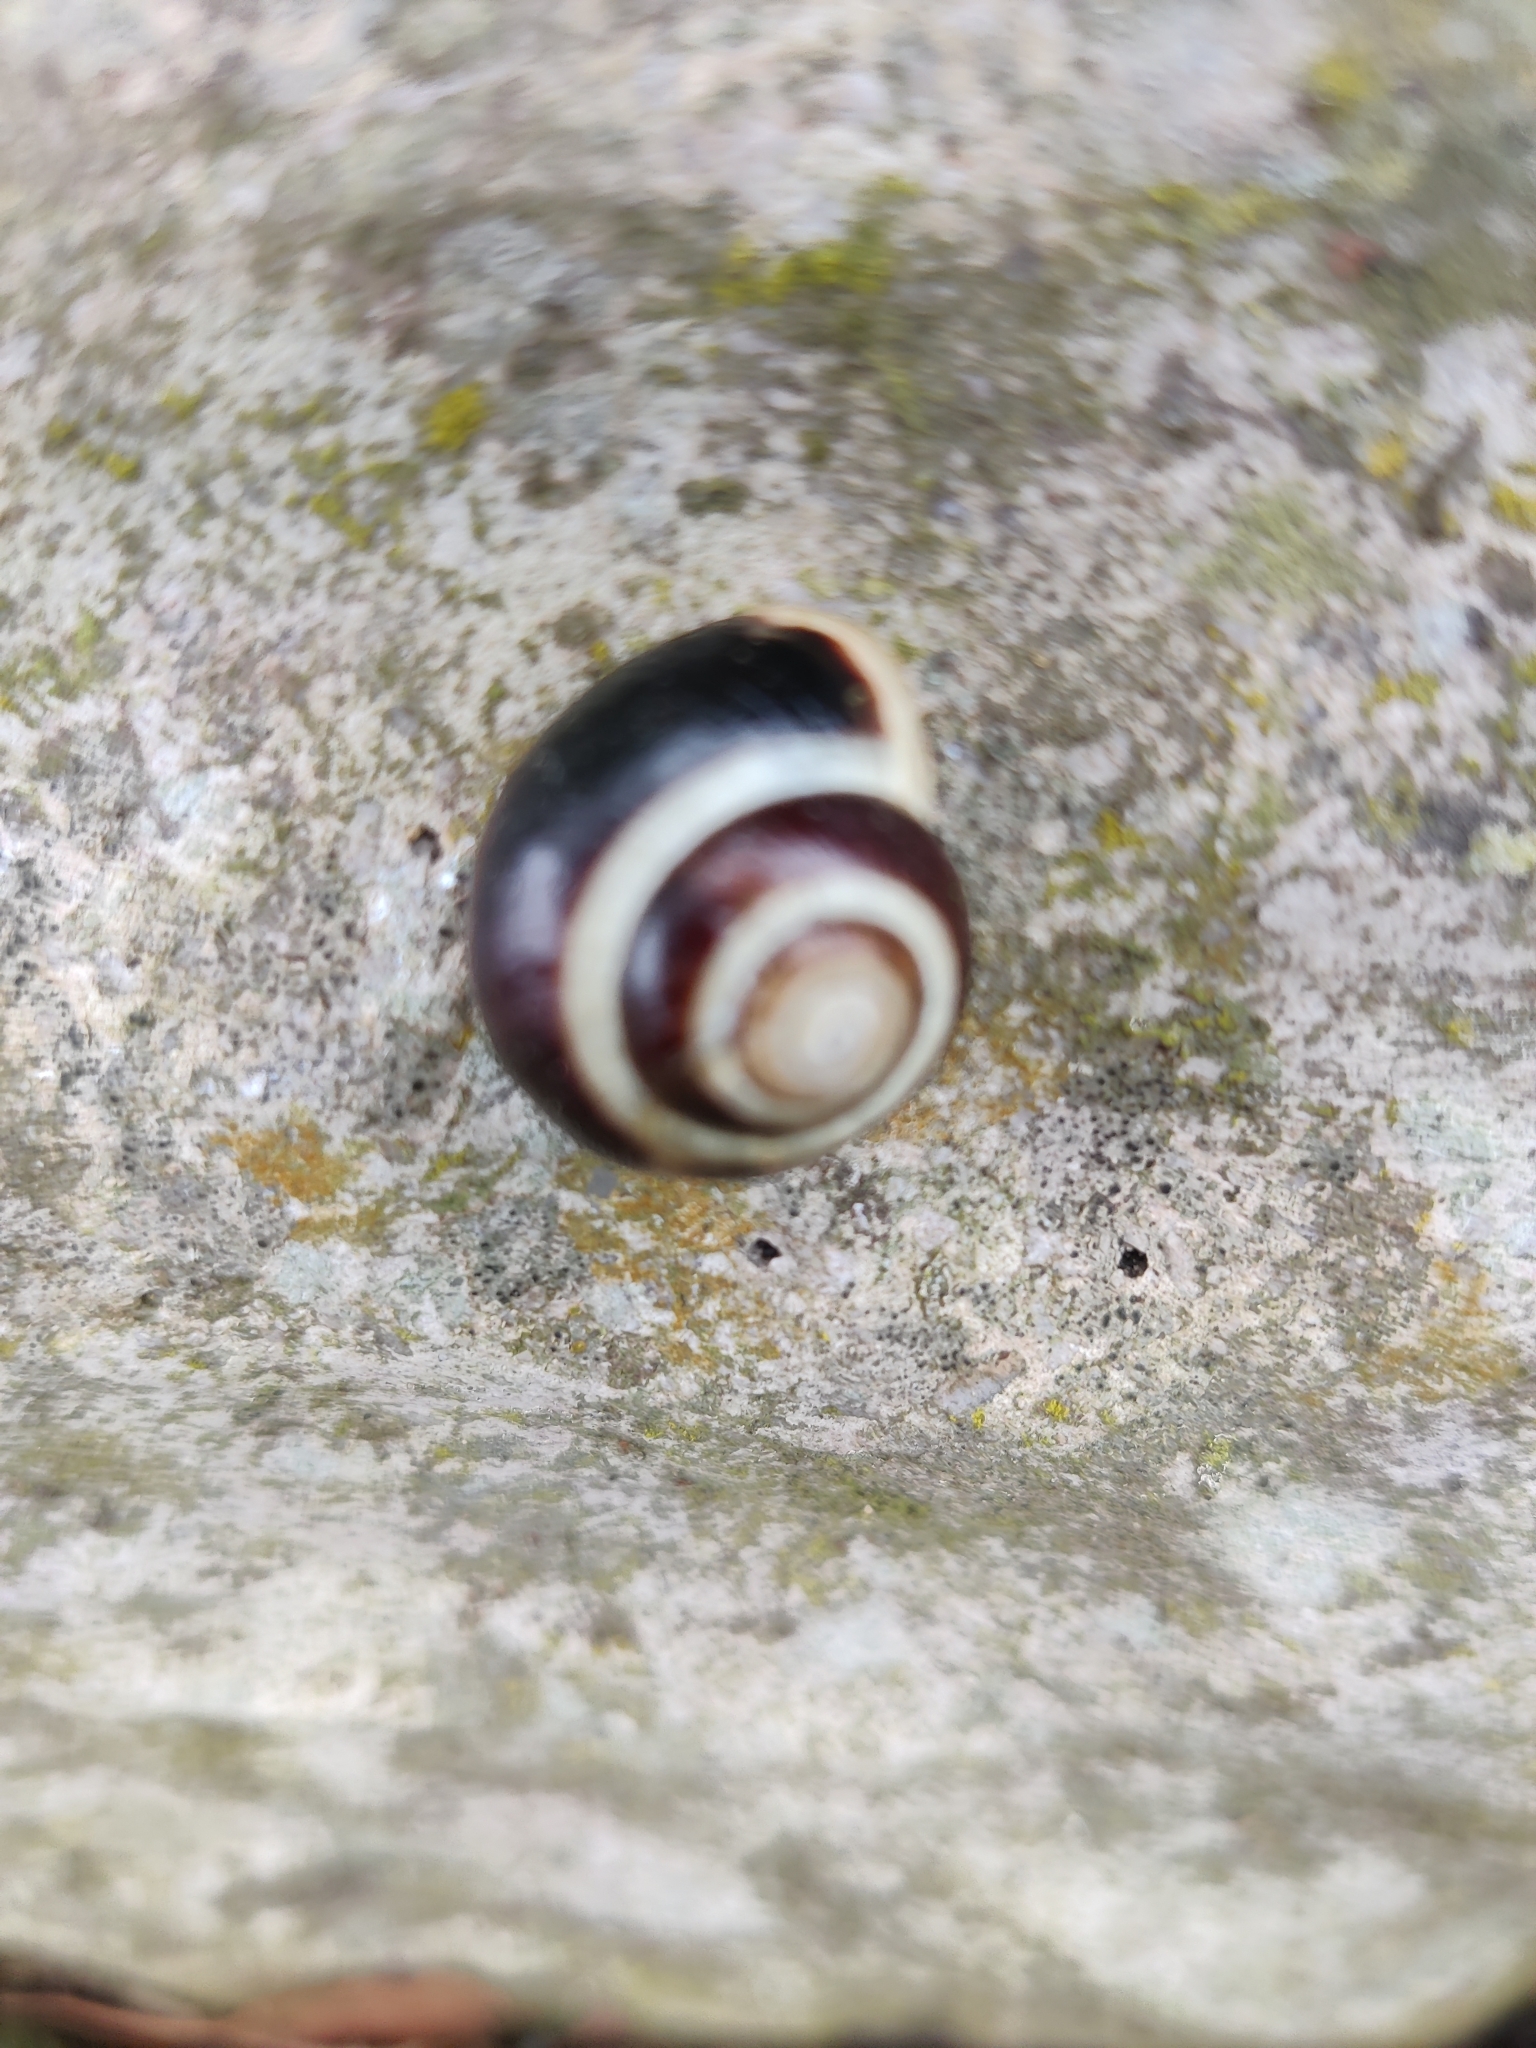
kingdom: Animalia
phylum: Mollusca
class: Gastropoda
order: Stylommatophora
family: Helicidae
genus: Cepaea
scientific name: Cepaea hortensis
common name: White-lip gardensnail
